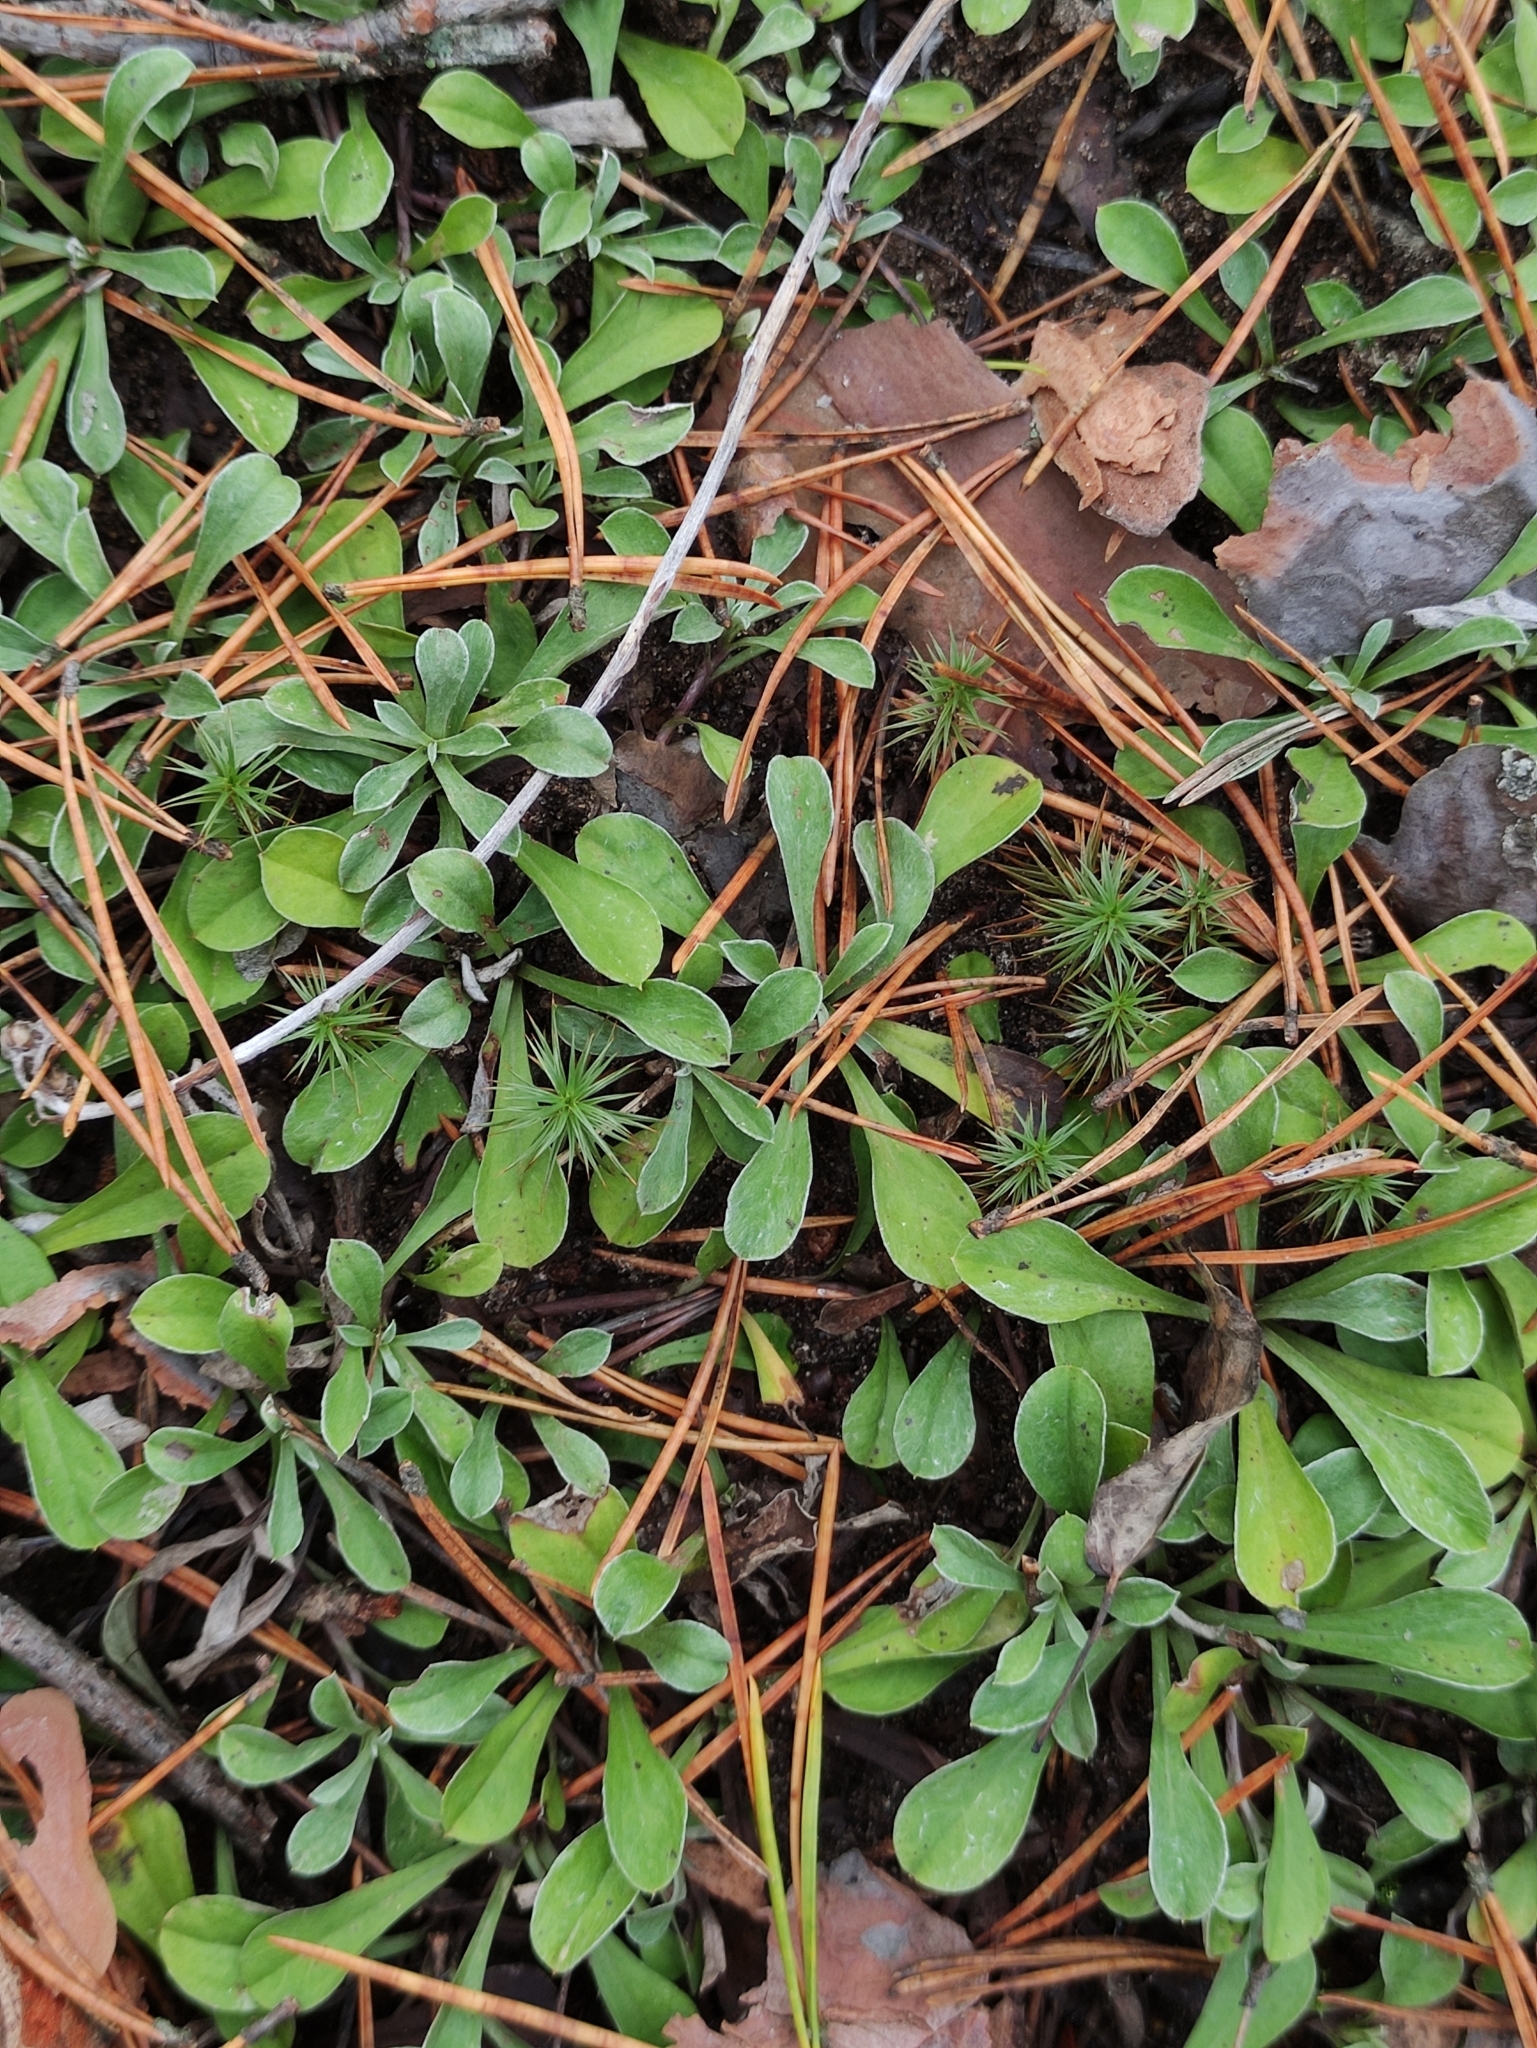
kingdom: Plantae
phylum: Tracheophyta
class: Magnoliopsida
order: Asterales
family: Asteraceae
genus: Antennaria
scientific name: Antennaria dioica
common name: Mountain everlasting
